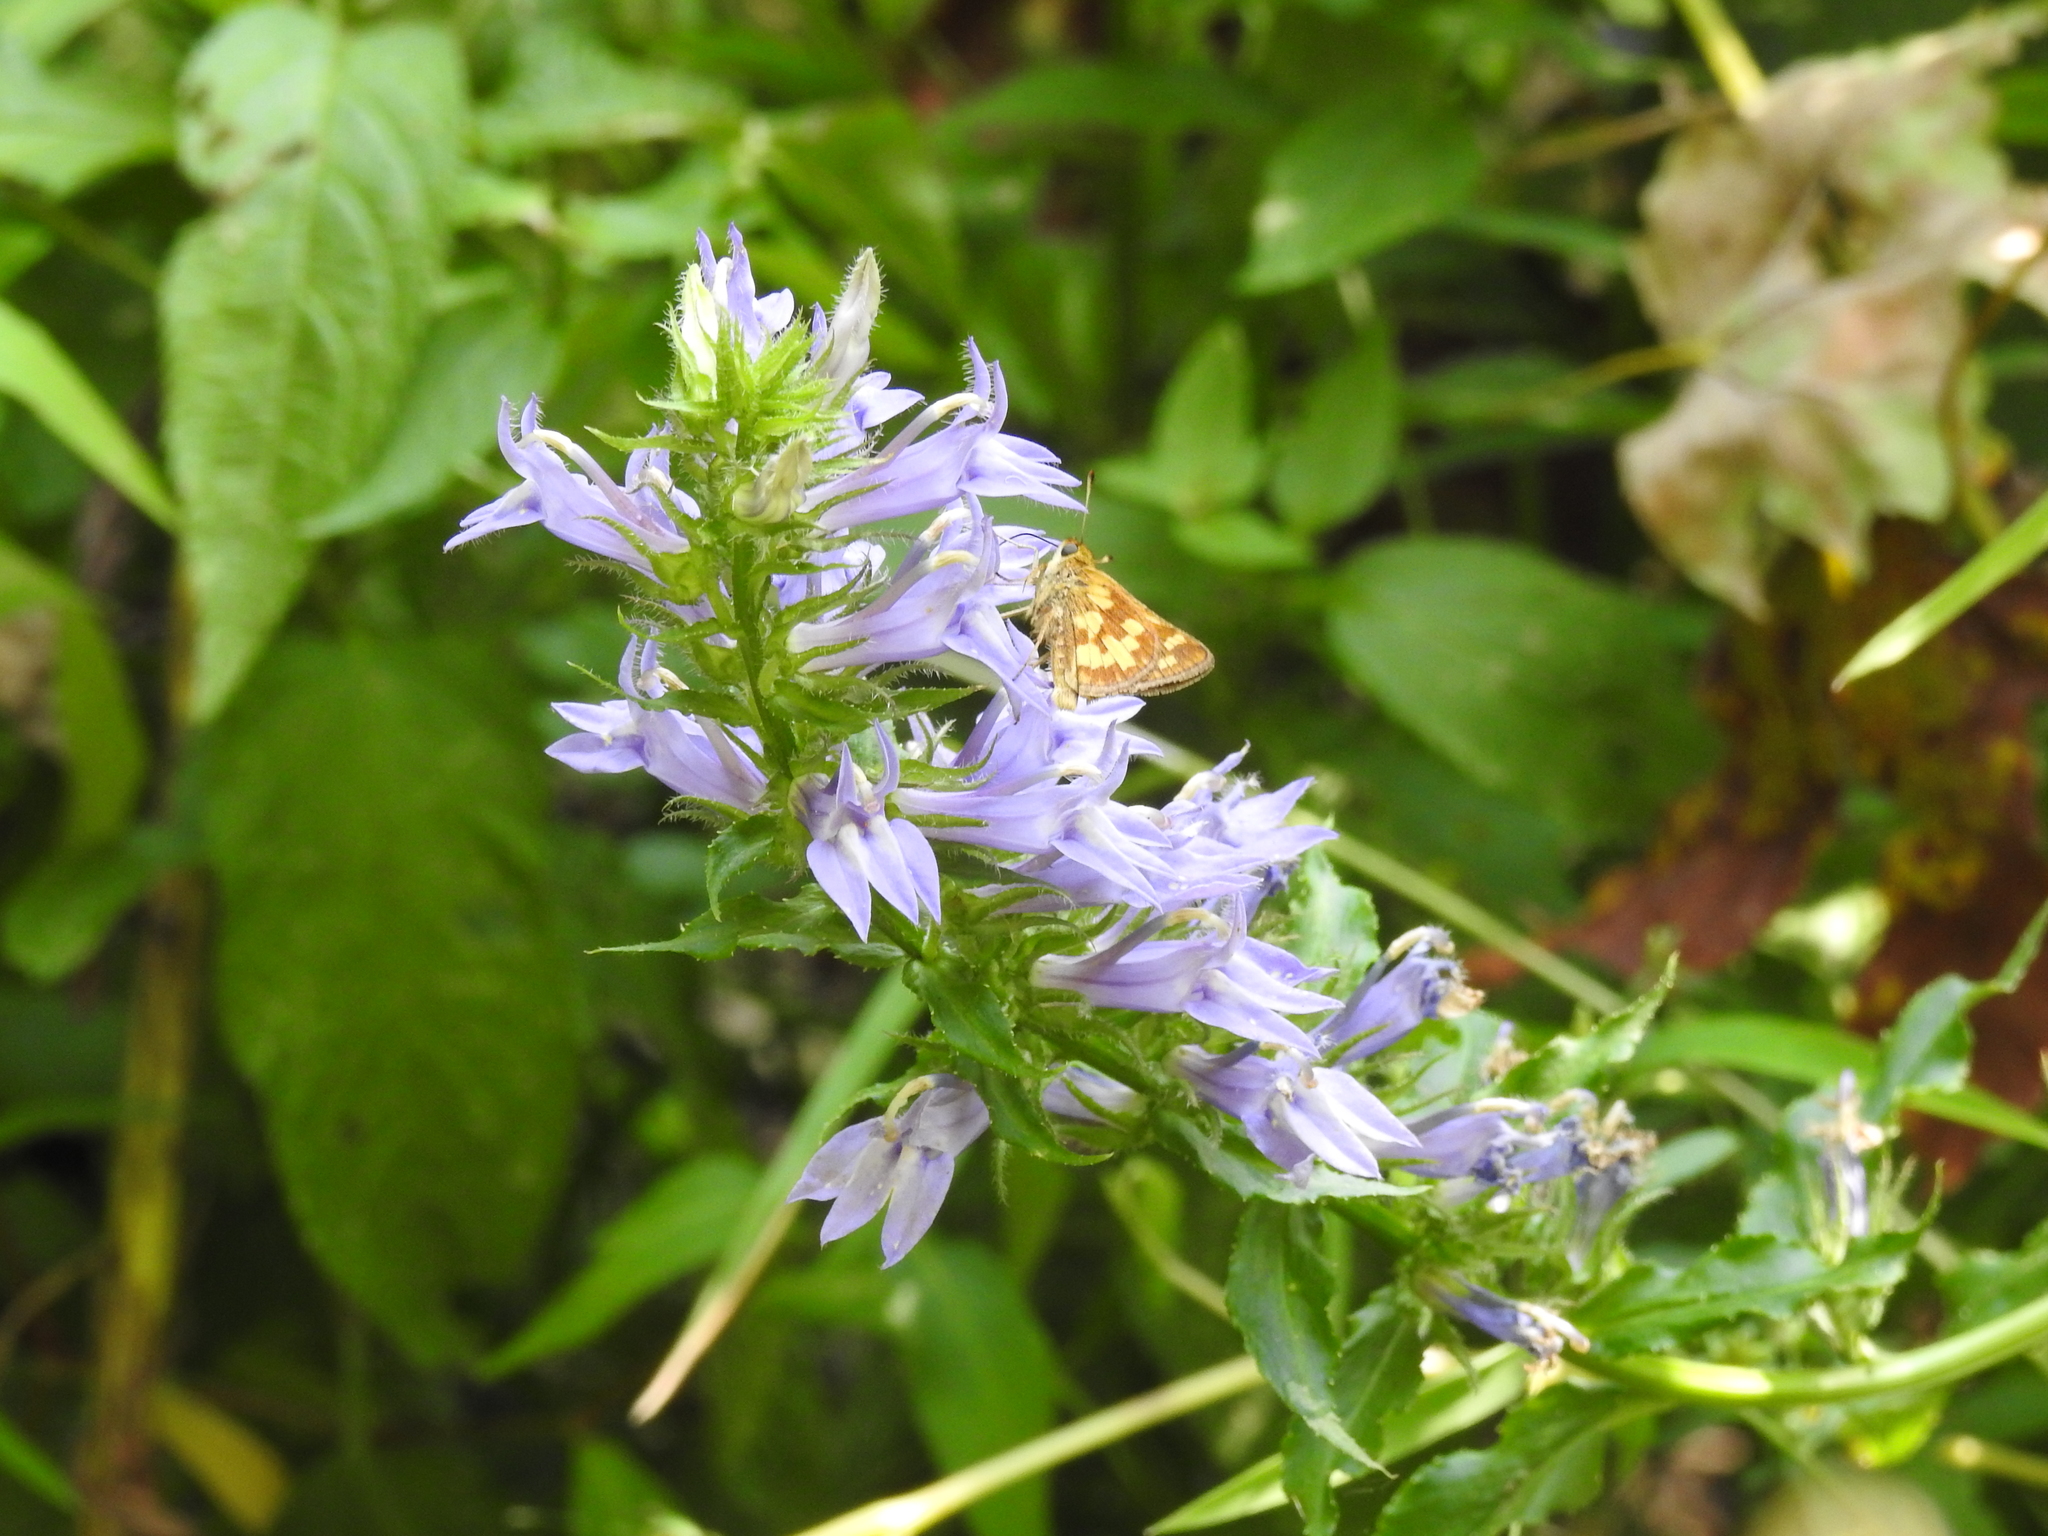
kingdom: Animalia
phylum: Arthropoda
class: Insecta
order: Lepidoptera
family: Hesperiidae
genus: Polites
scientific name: Polites coras
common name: Peck's skipper
